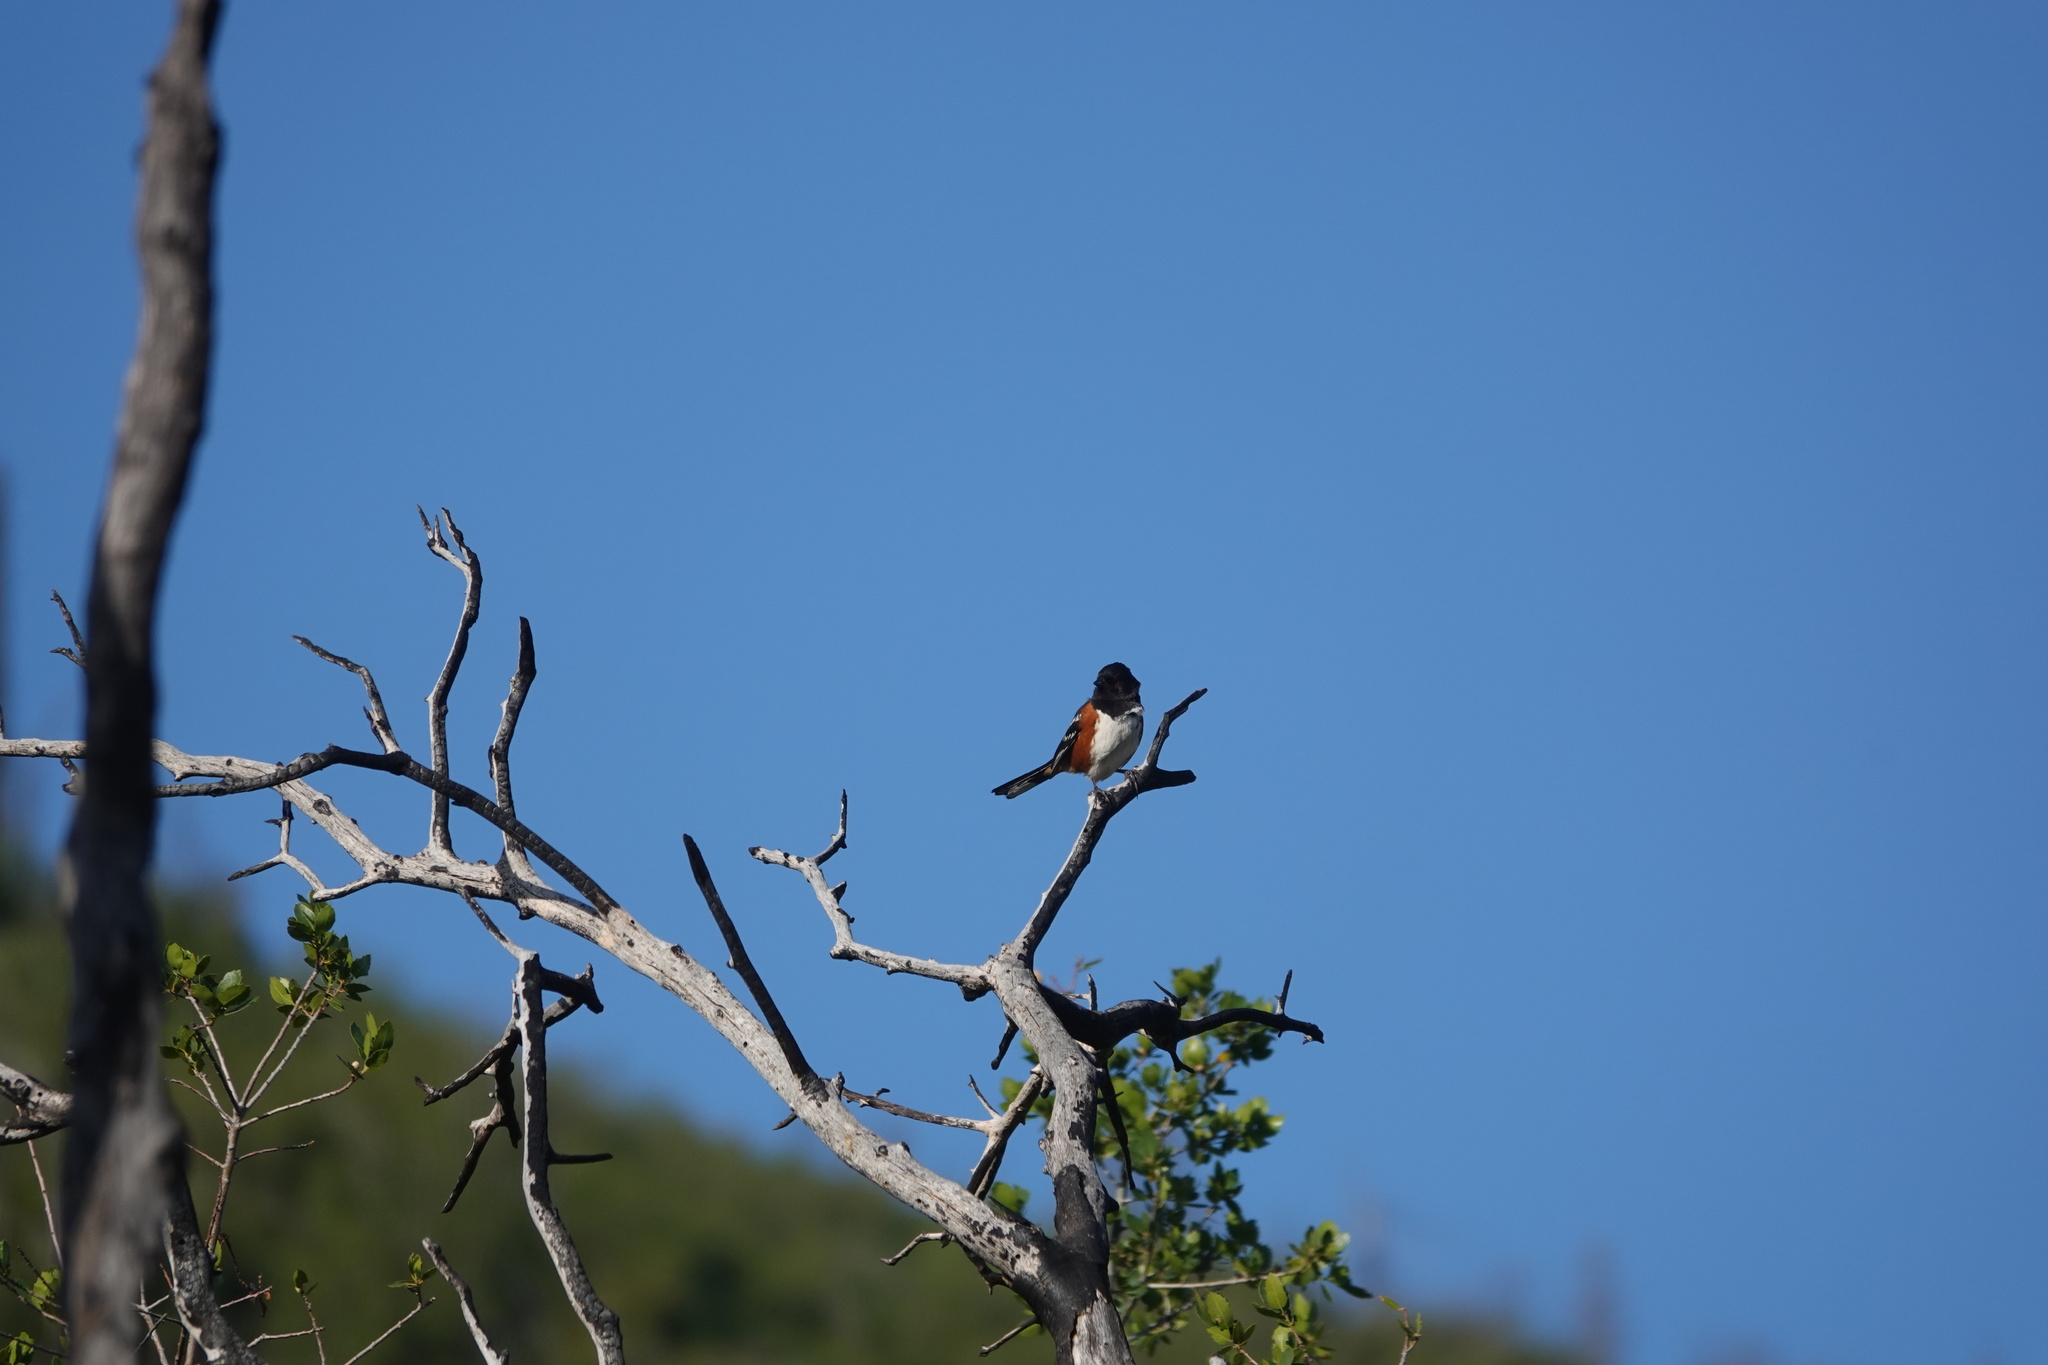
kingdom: Animalia
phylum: Chordata
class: Aves
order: Passeriformes
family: Passerellidae
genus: Pipilo
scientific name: Pipilo maculatus
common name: Spotted towhee
